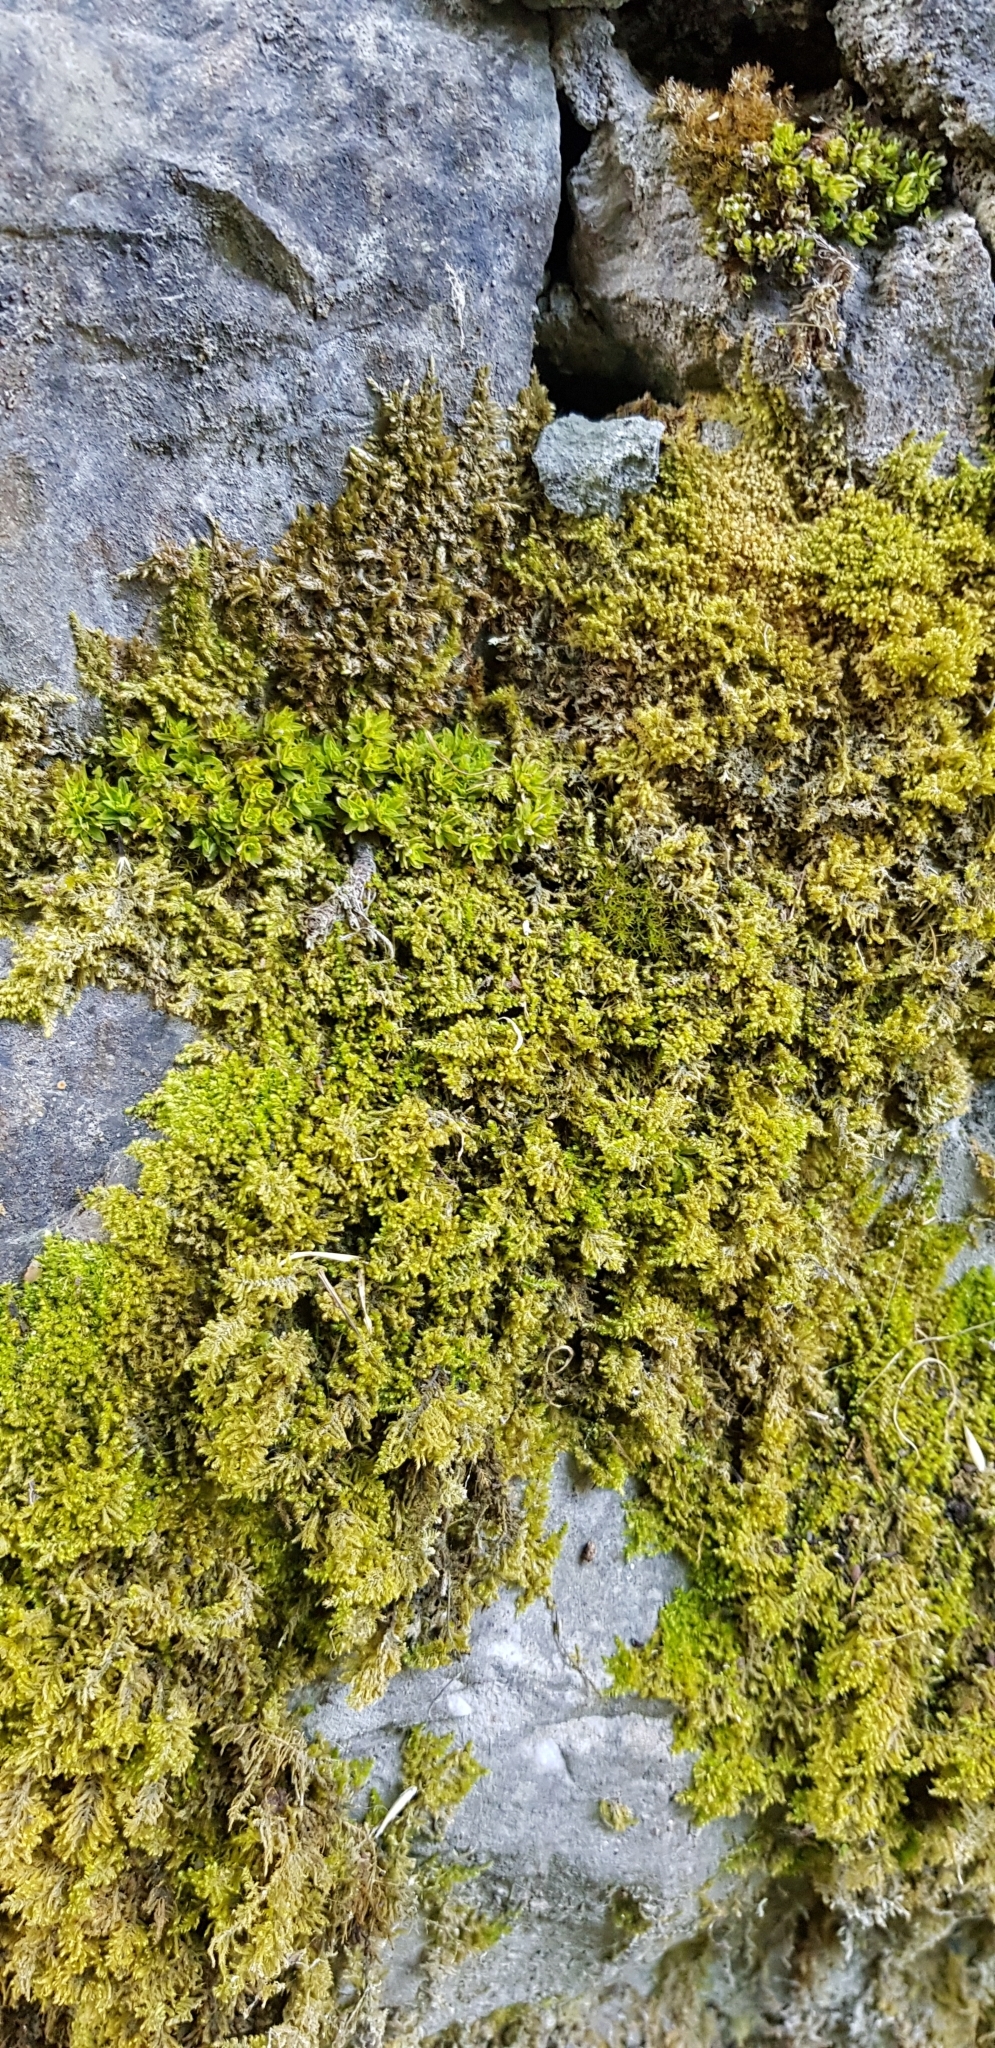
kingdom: Plantae
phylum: Bryophyta
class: Bryopsida
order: Encalyptales
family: Encalyptaceae
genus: Encalypta
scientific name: Encalypta streptocarpa
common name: Spiral extinguisher-moss
